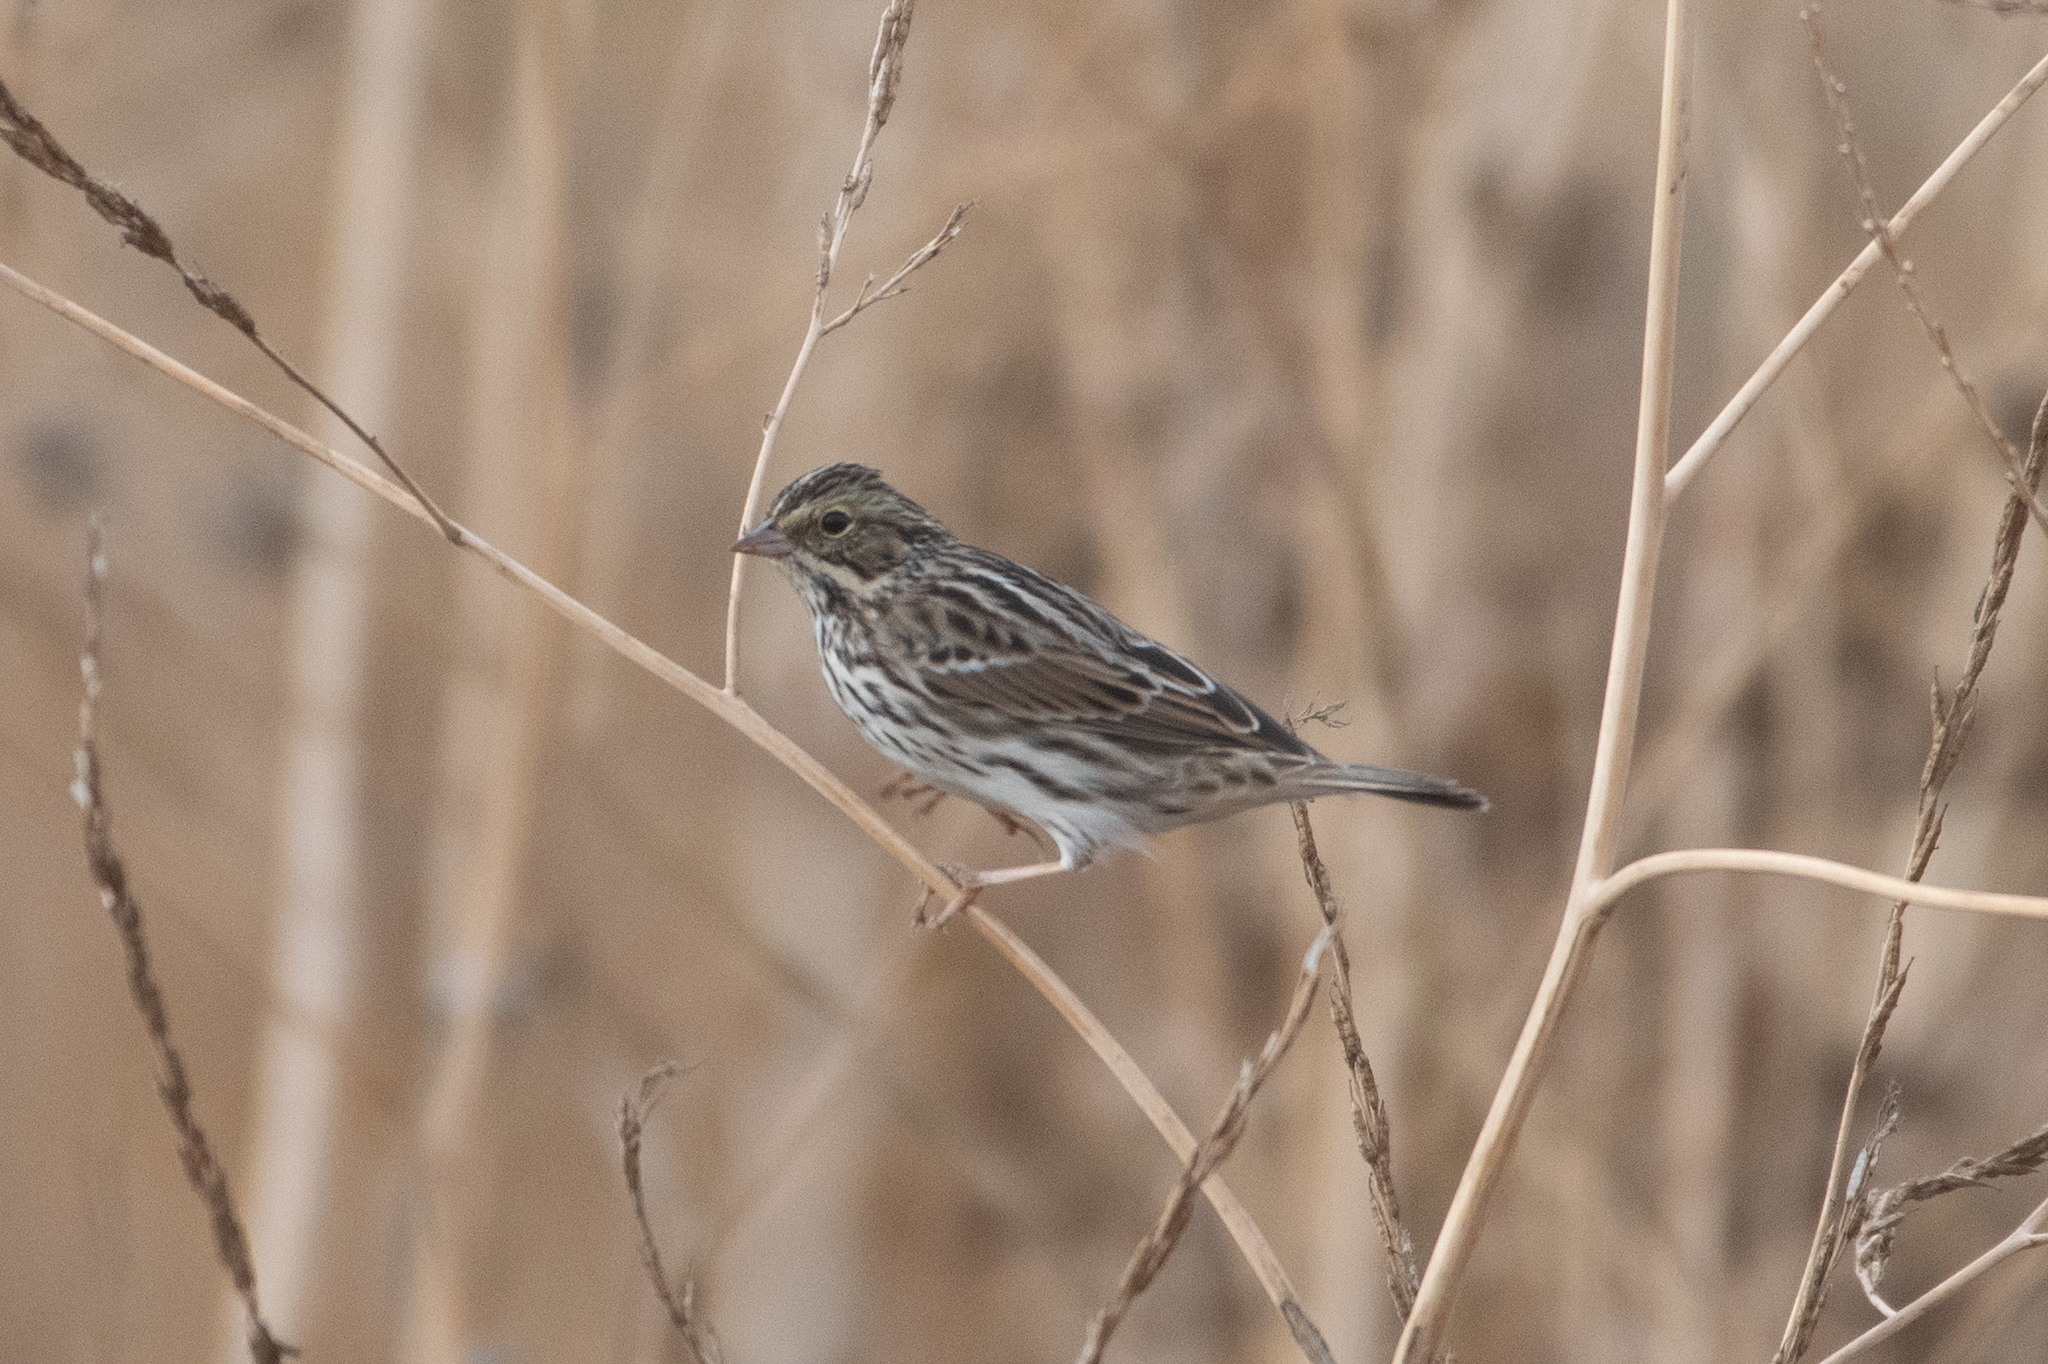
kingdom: Animalia
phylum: Chordata
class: Aves
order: Passeriformes
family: Passerellidae
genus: Passerculus
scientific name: Passerculus sandwichensis
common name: Savannah sparrow
